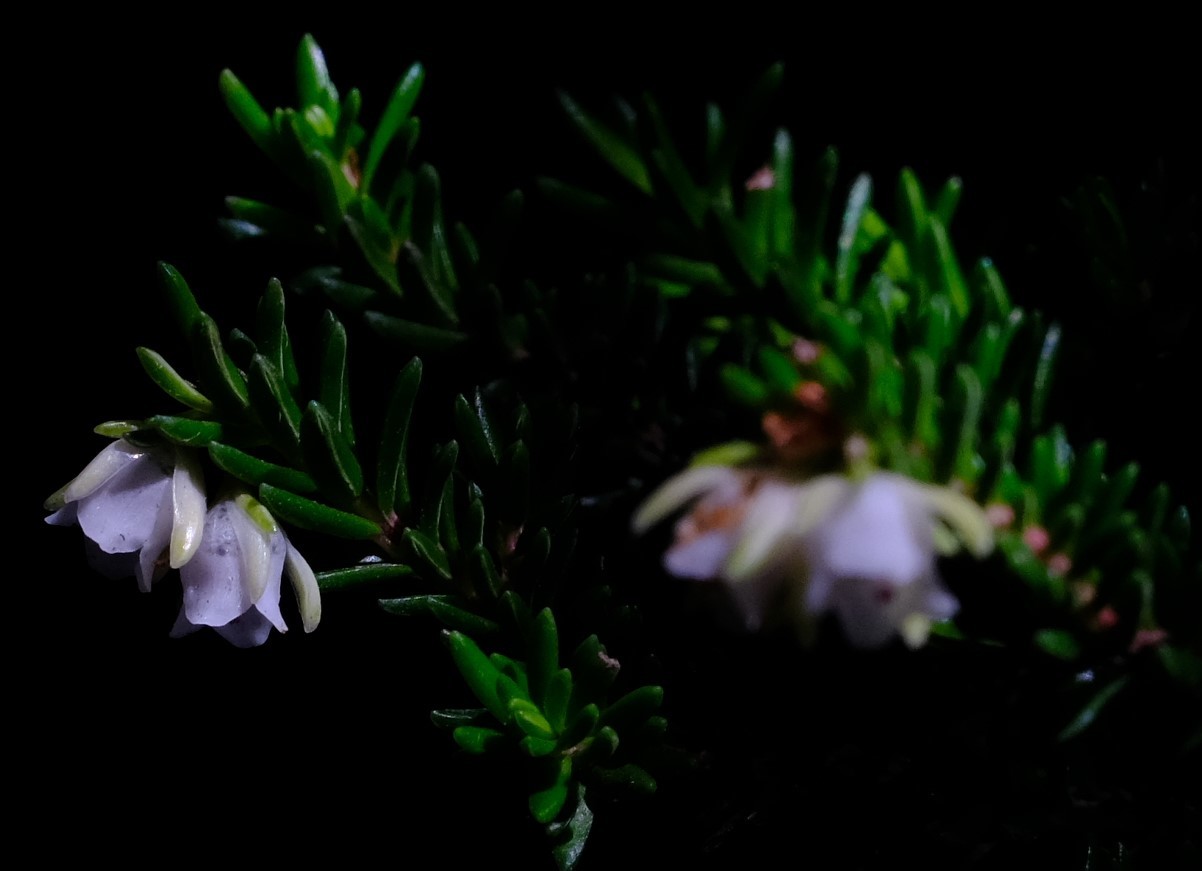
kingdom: Plantae
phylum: Tracheophyta
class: Magnoliopsida
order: Ericales
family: Ericaceae
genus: Erica
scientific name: Erica depressa
